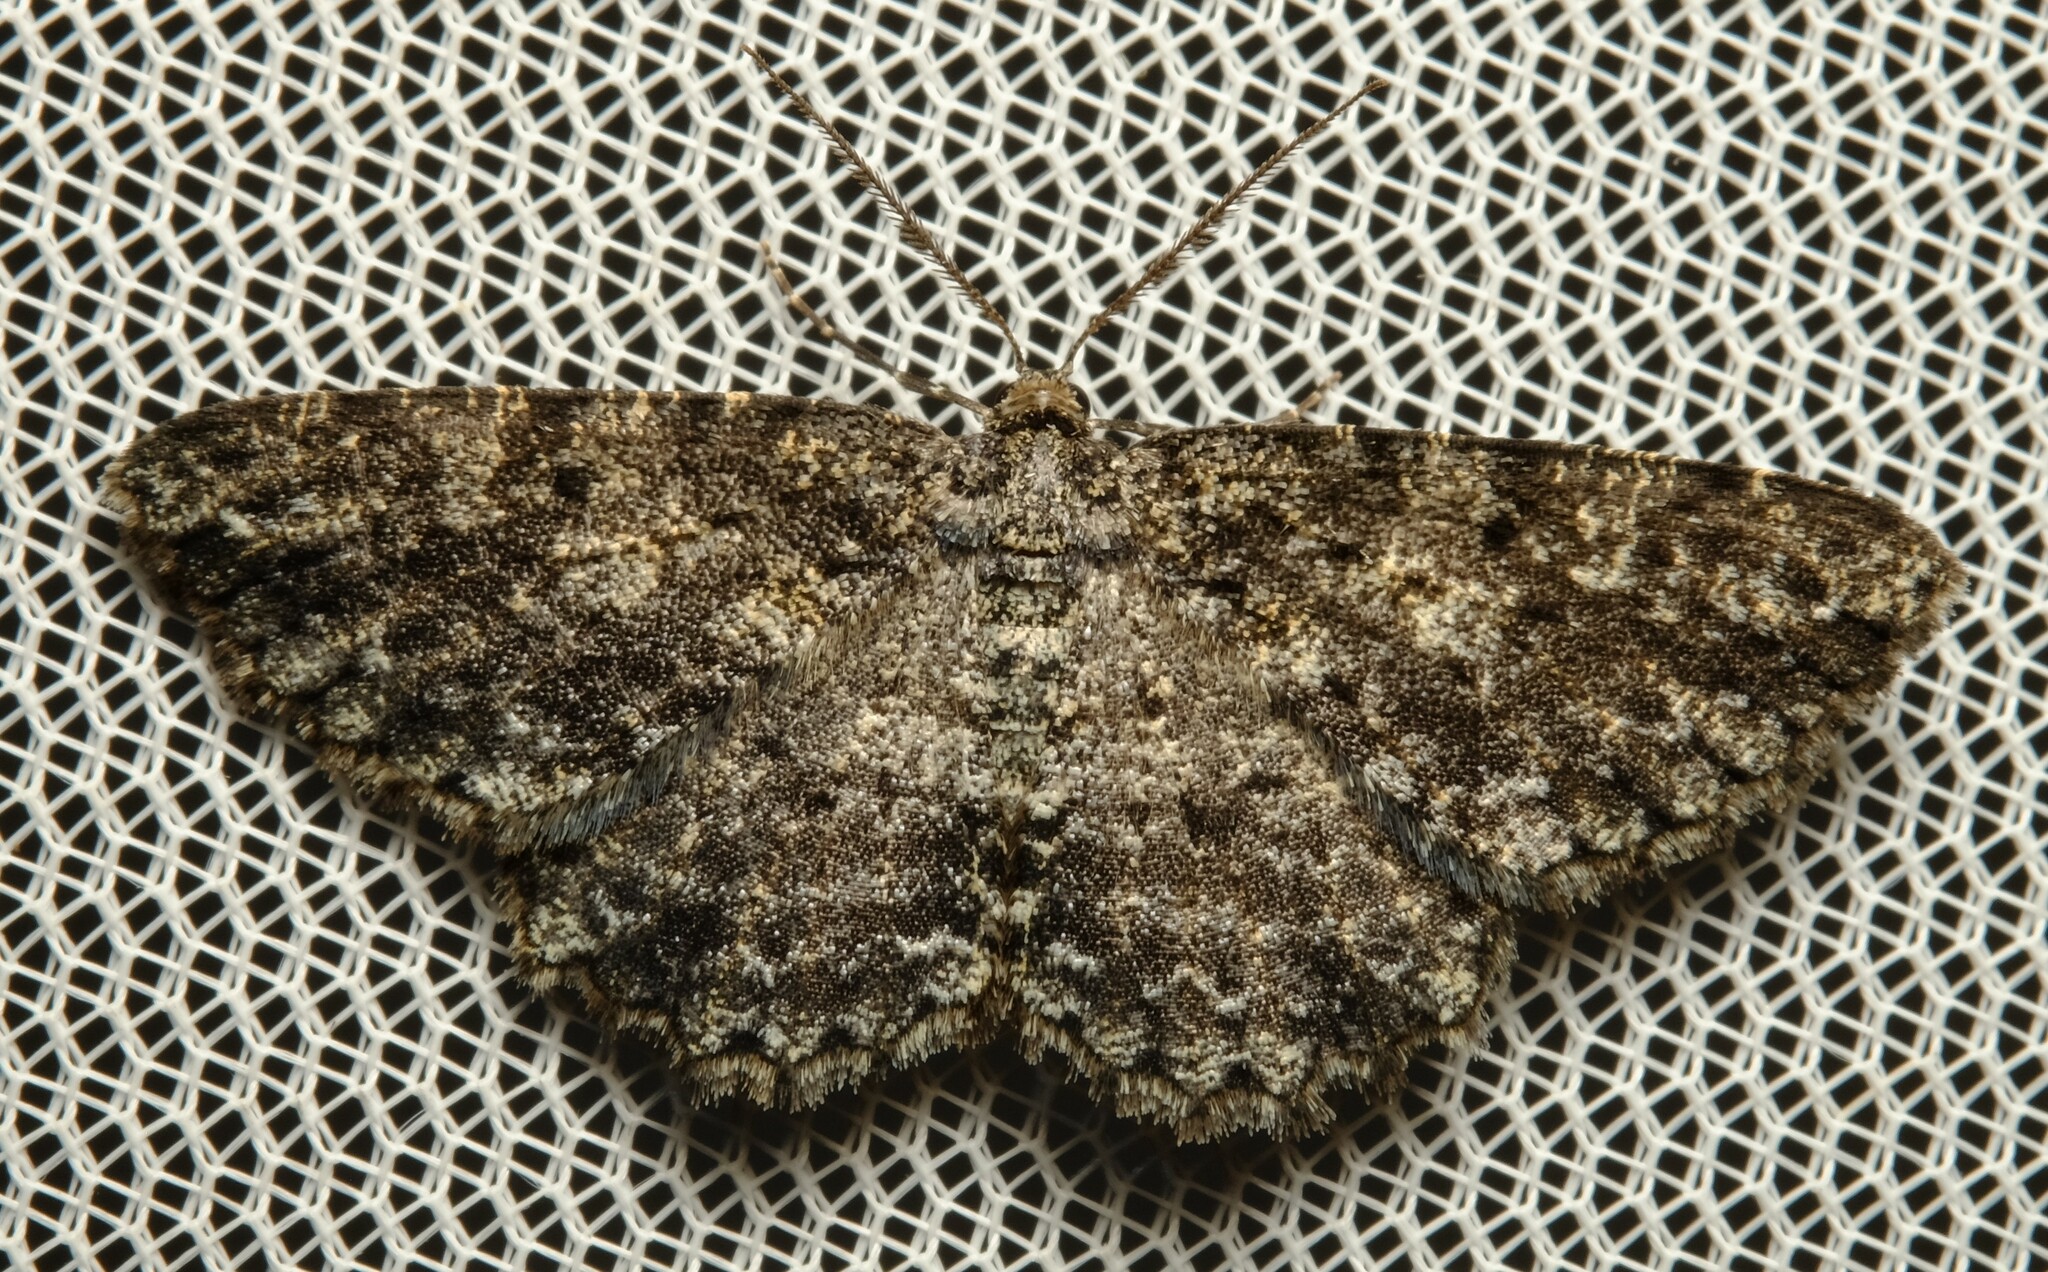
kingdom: Animalia
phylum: Arthropoda
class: Insecta
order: Lepidoptera
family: Geometridae
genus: Thallogama
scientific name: Thallogama nigraria
